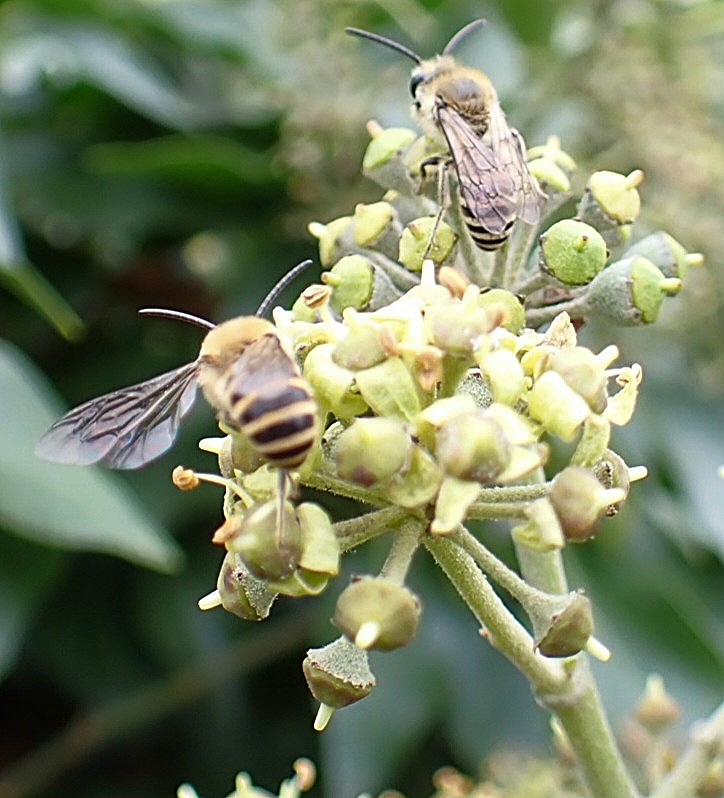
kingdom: Animalia
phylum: Arthropoda
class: Insecta
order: Hymenoptera
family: Colletidae
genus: Colletes
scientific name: Colletes hederae
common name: Ivy bee
